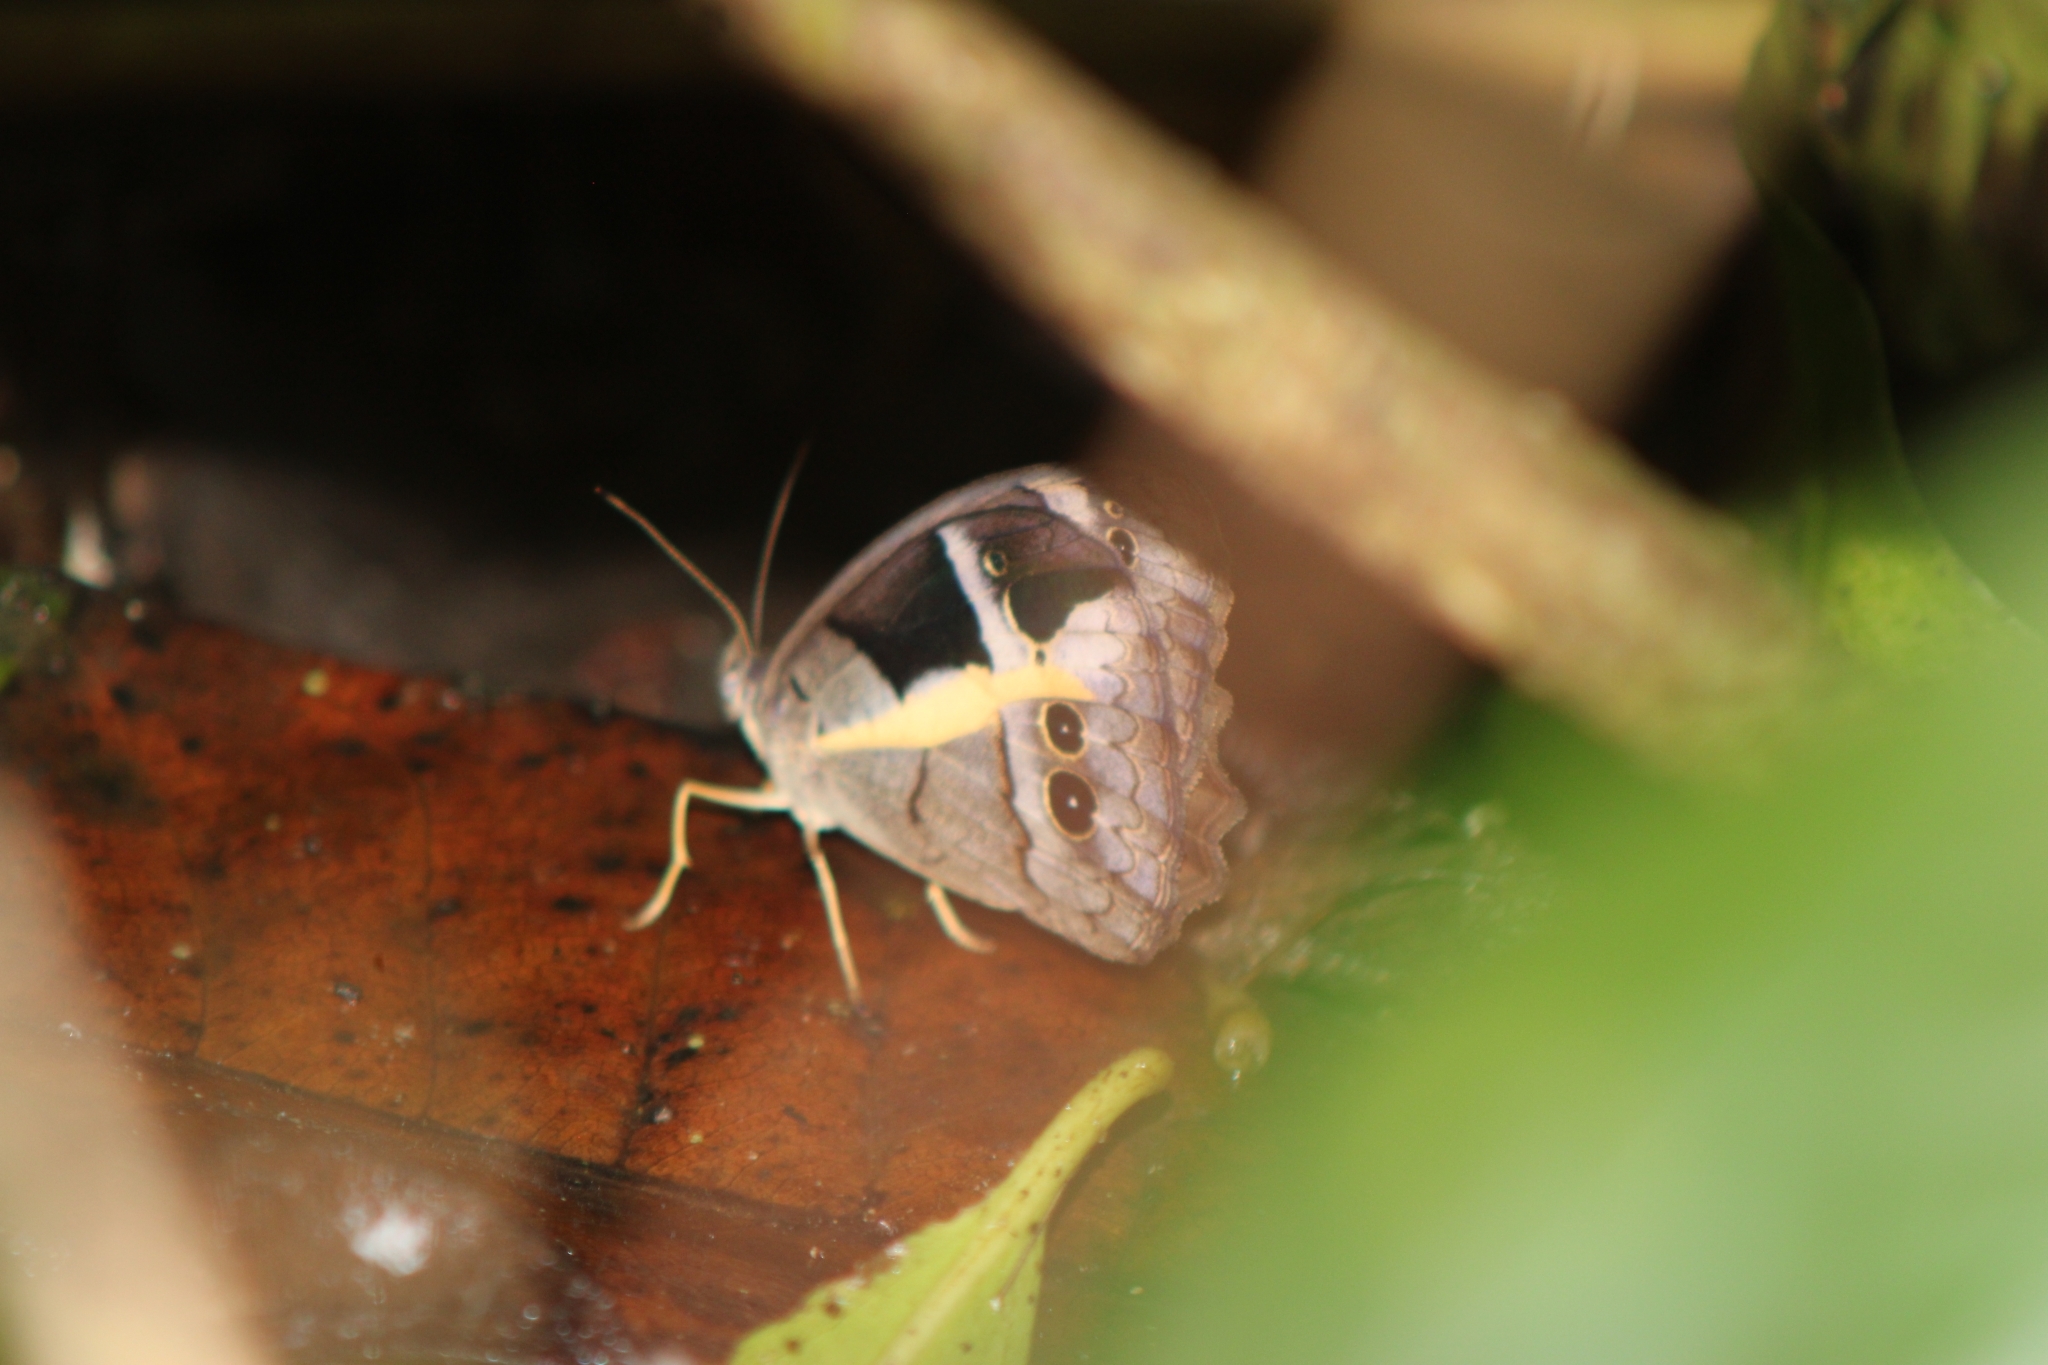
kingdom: Animalia
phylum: Arthropoda
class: Insecta
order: Lepidoptera
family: Nymphalidae
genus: Posttaygetis
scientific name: Posttaygetis penelea
